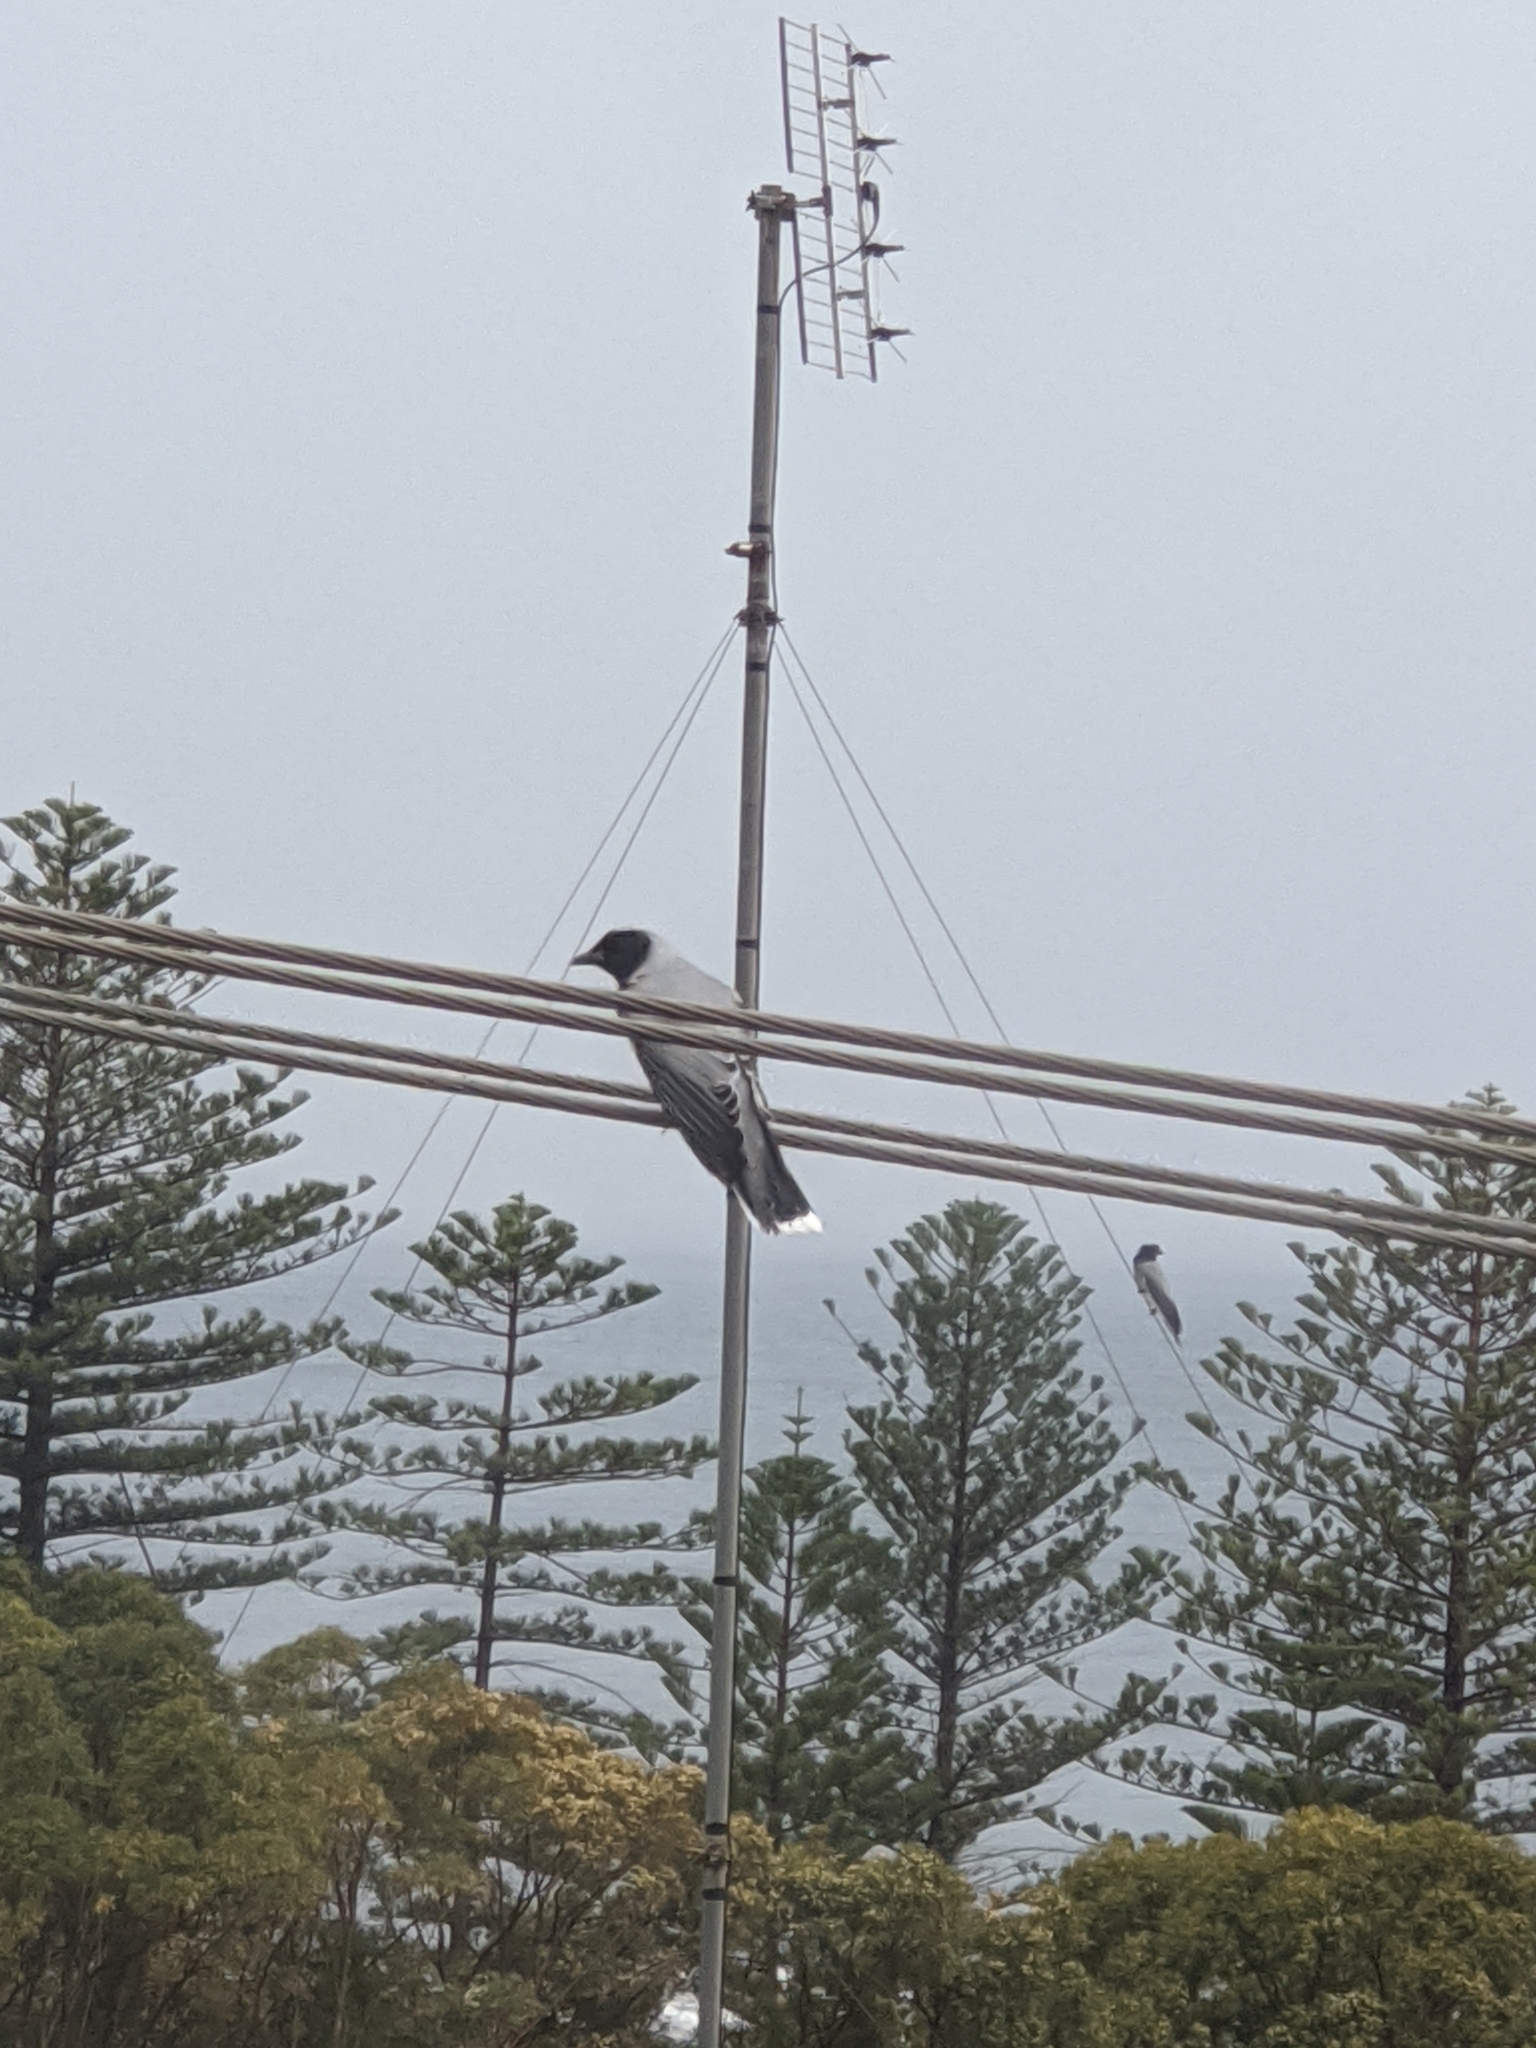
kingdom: Animalia
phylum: Chordata
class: Aves
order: Passeriformes
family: Campephagidae
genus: Coracina
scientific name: Coracina novaehollandiae
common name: Black-faced cuckooshrike
